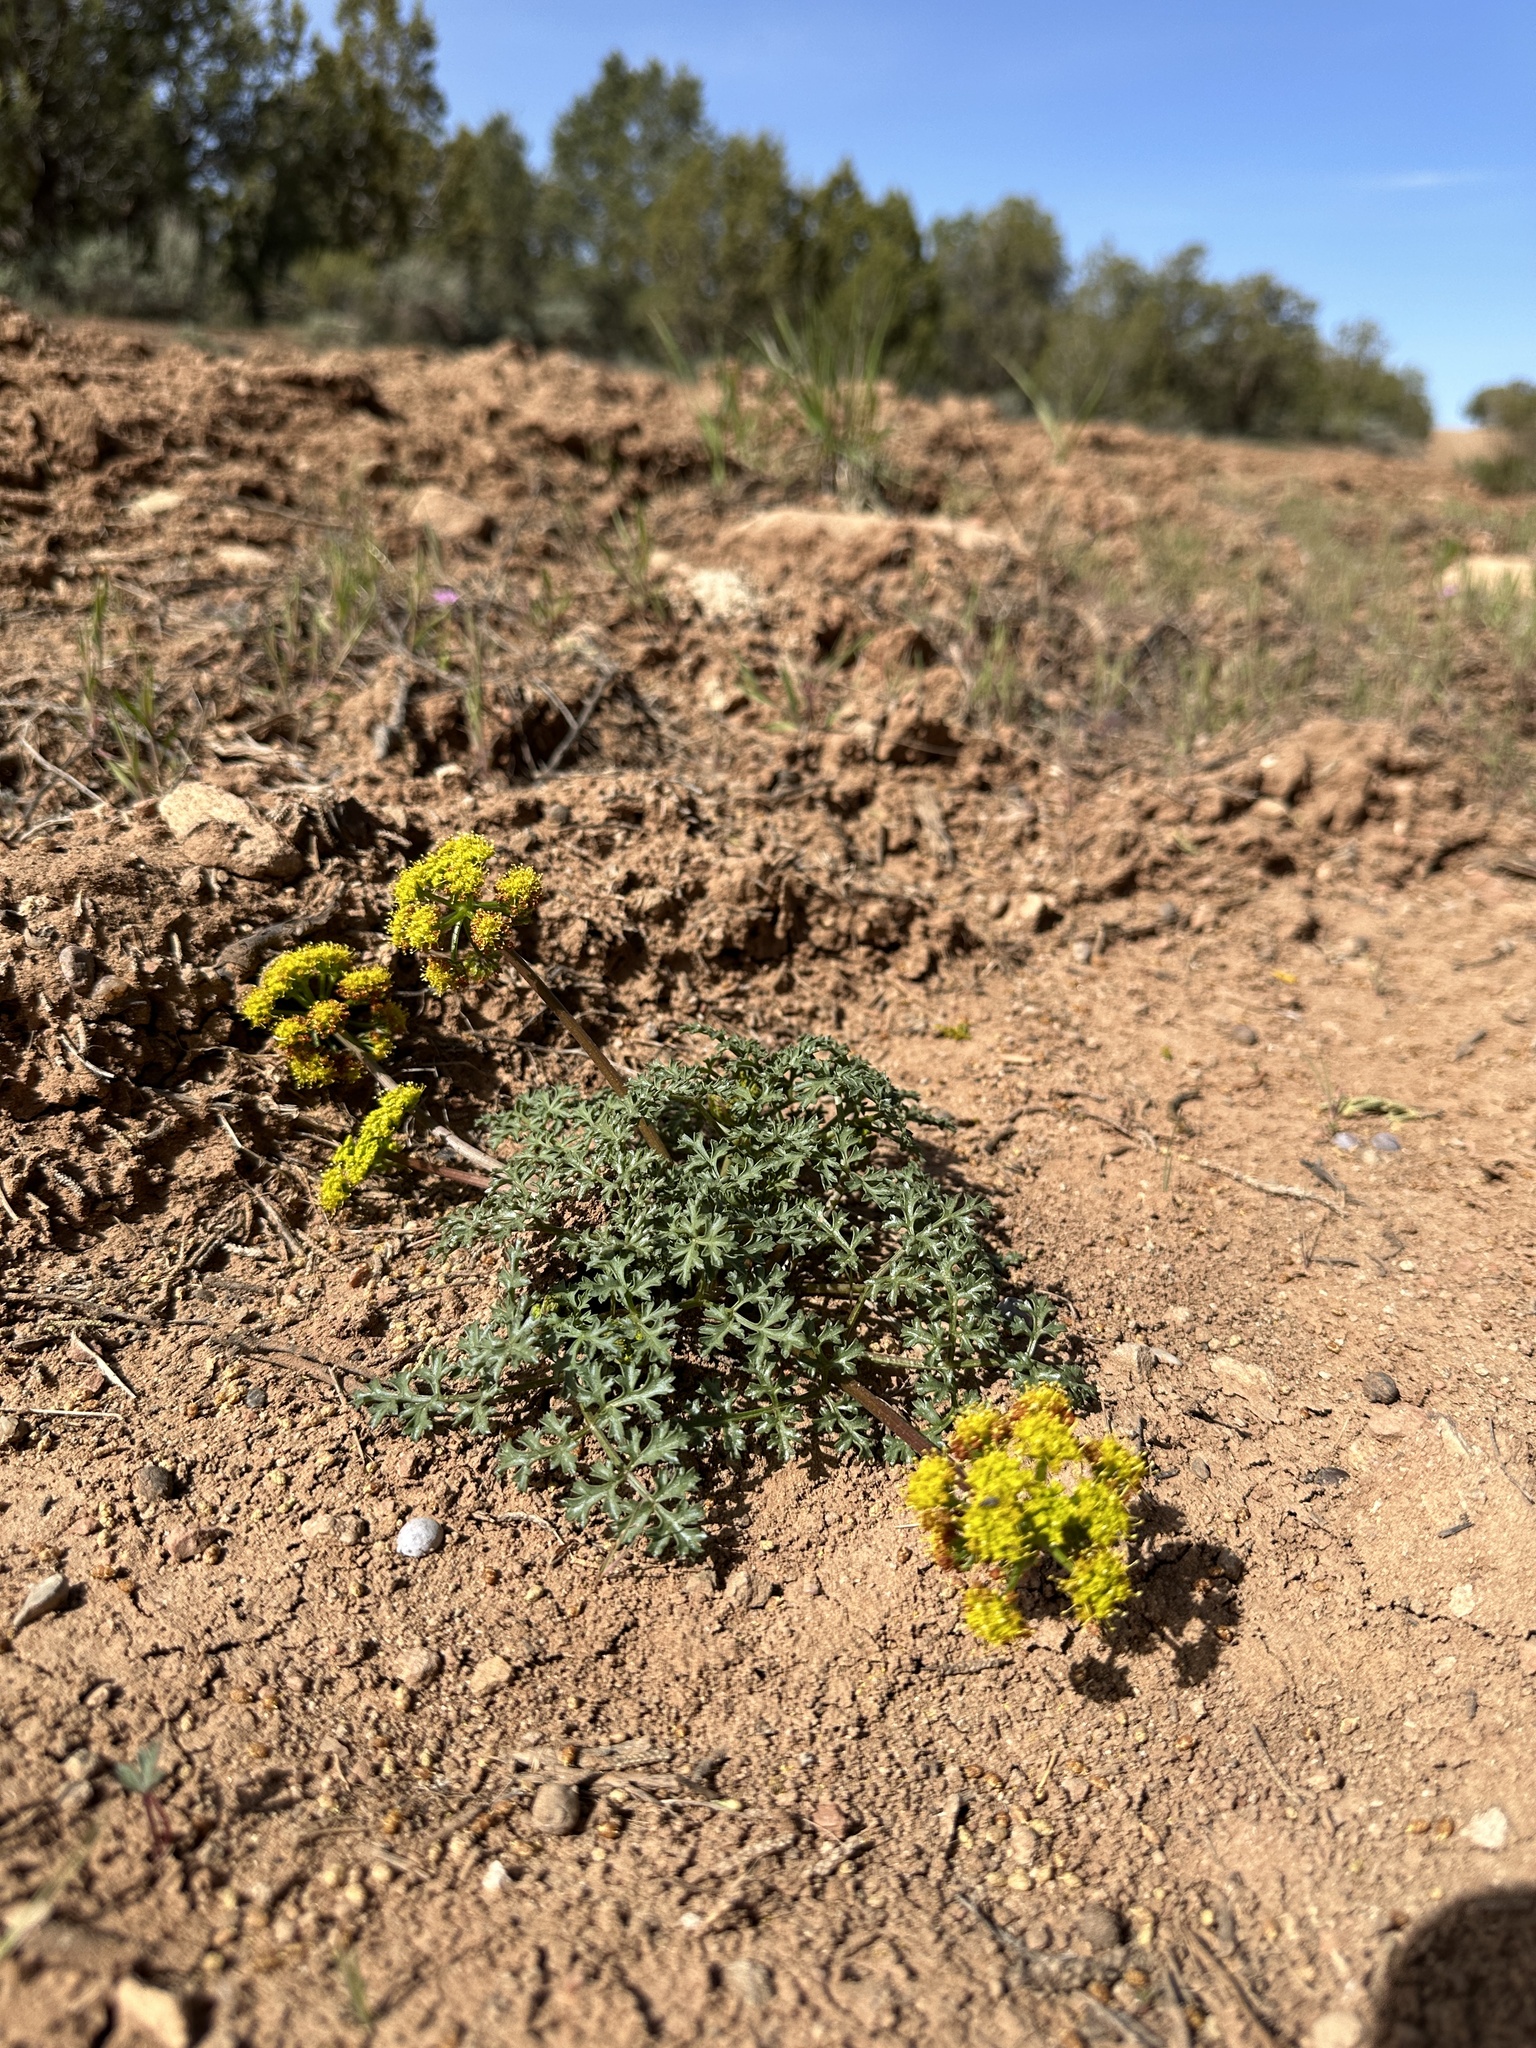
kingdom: Plantae
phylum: Tracheophyta
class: Magnoliopsida
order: Apiales
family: Apiaceae
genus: Aulospermum
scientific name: Aulospermum purpureum
